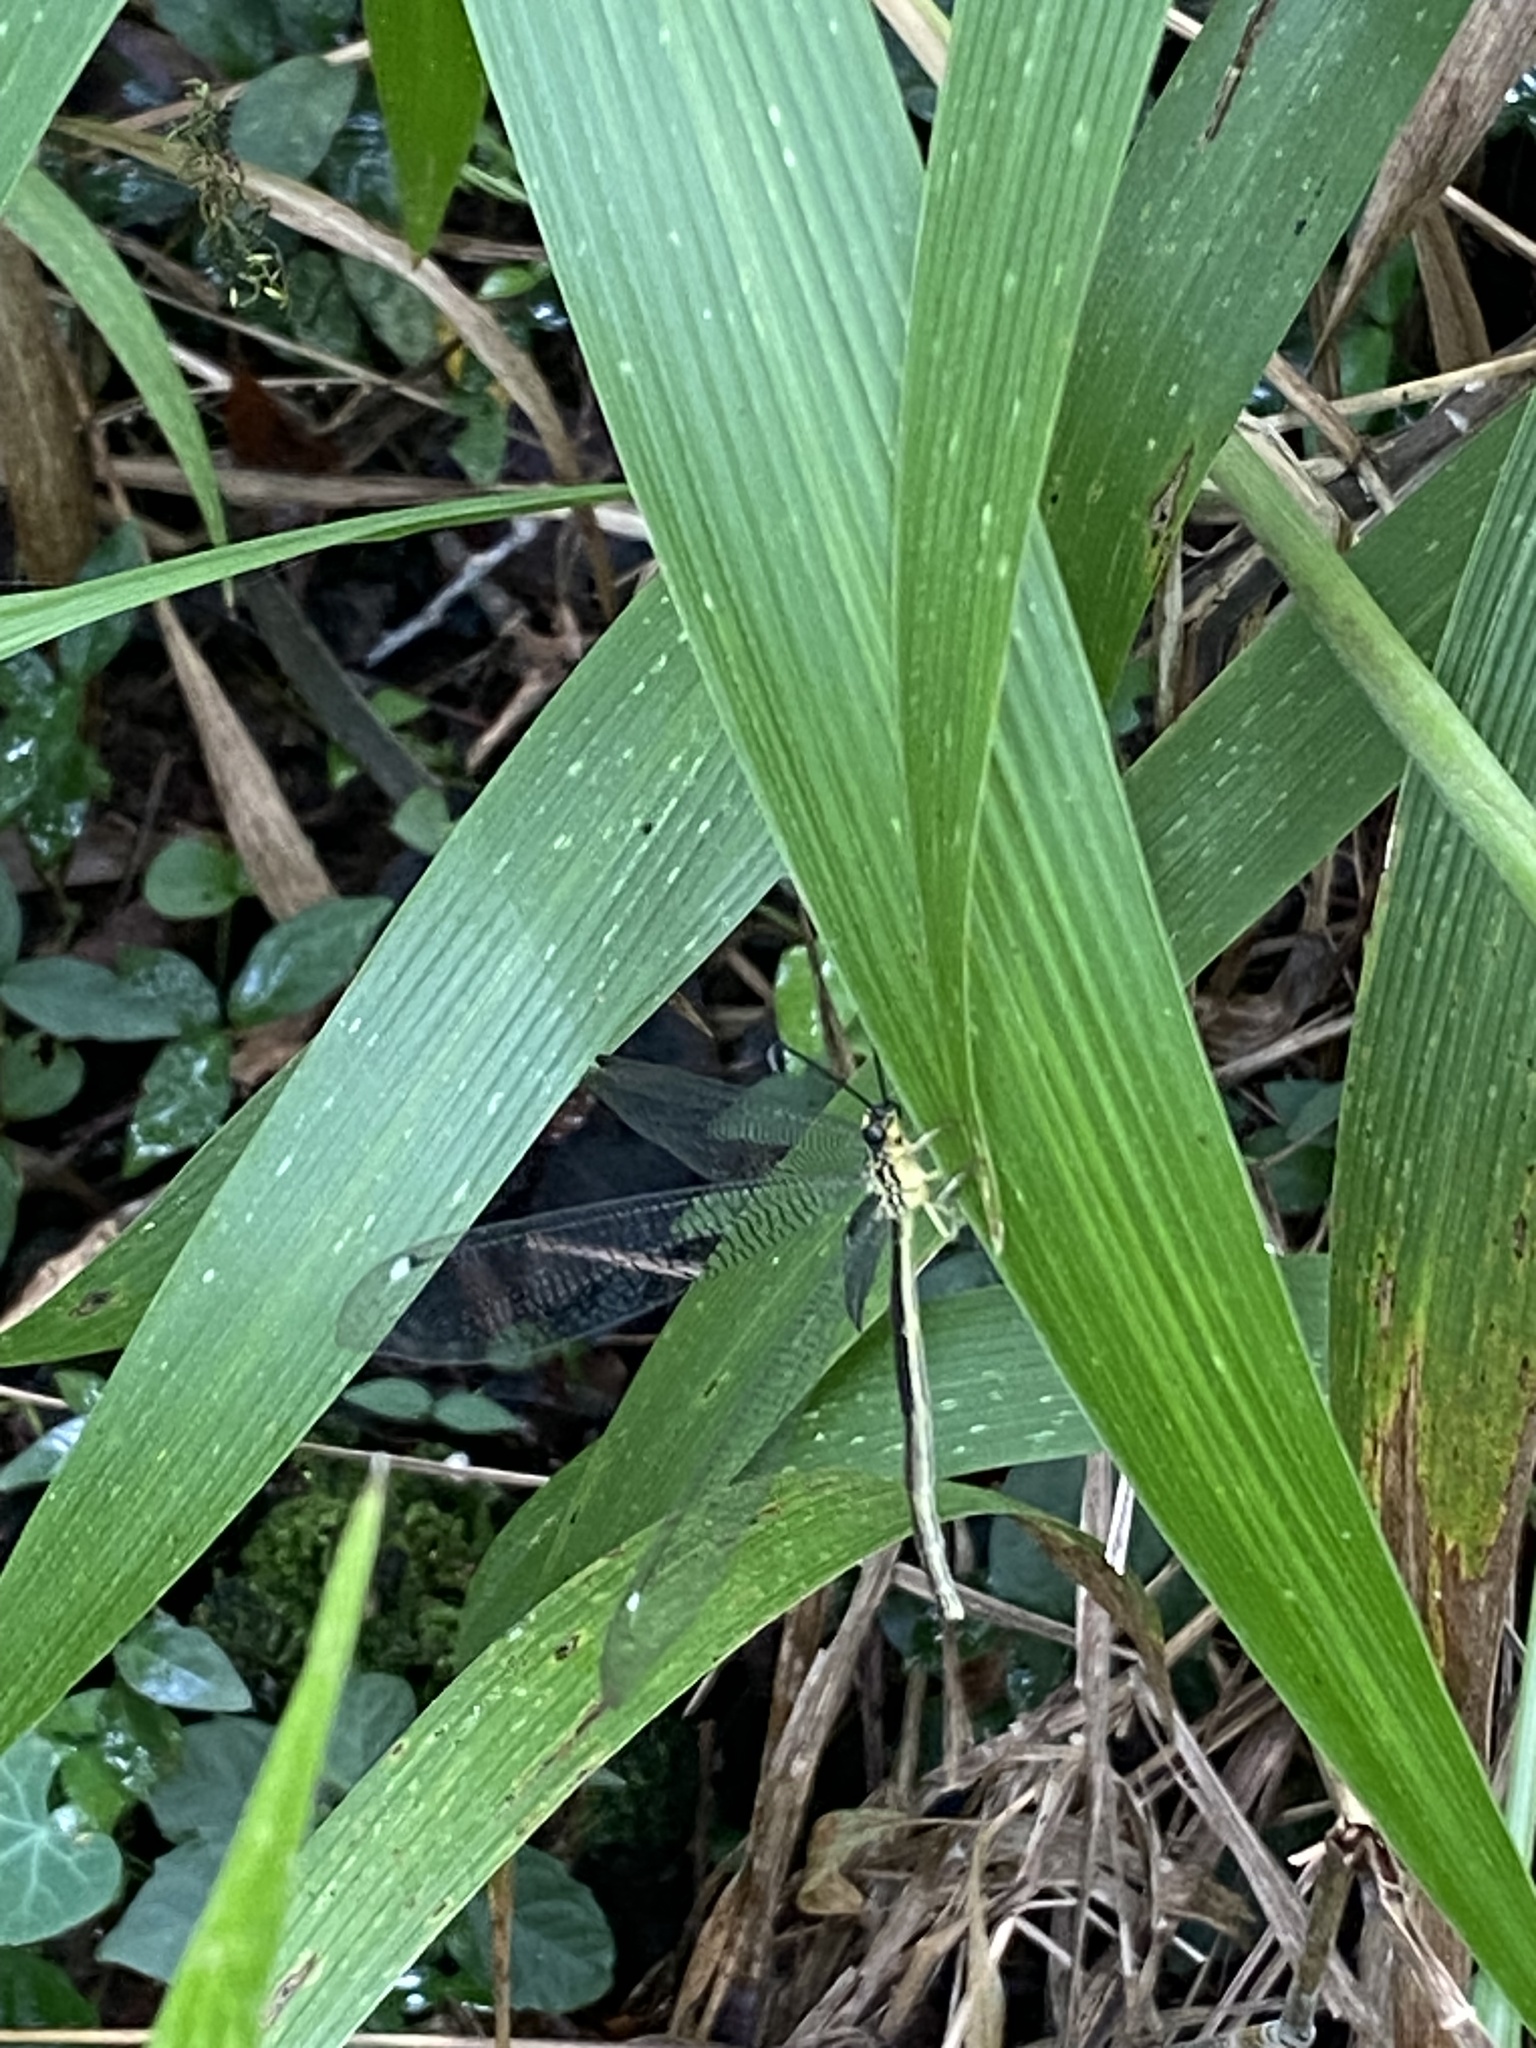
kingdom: Animalia
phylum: Arthropoda
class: Insecta
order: Neuroptera
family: Myrmeleontidae
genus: Banyutus
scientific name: Banyutus lethalis
